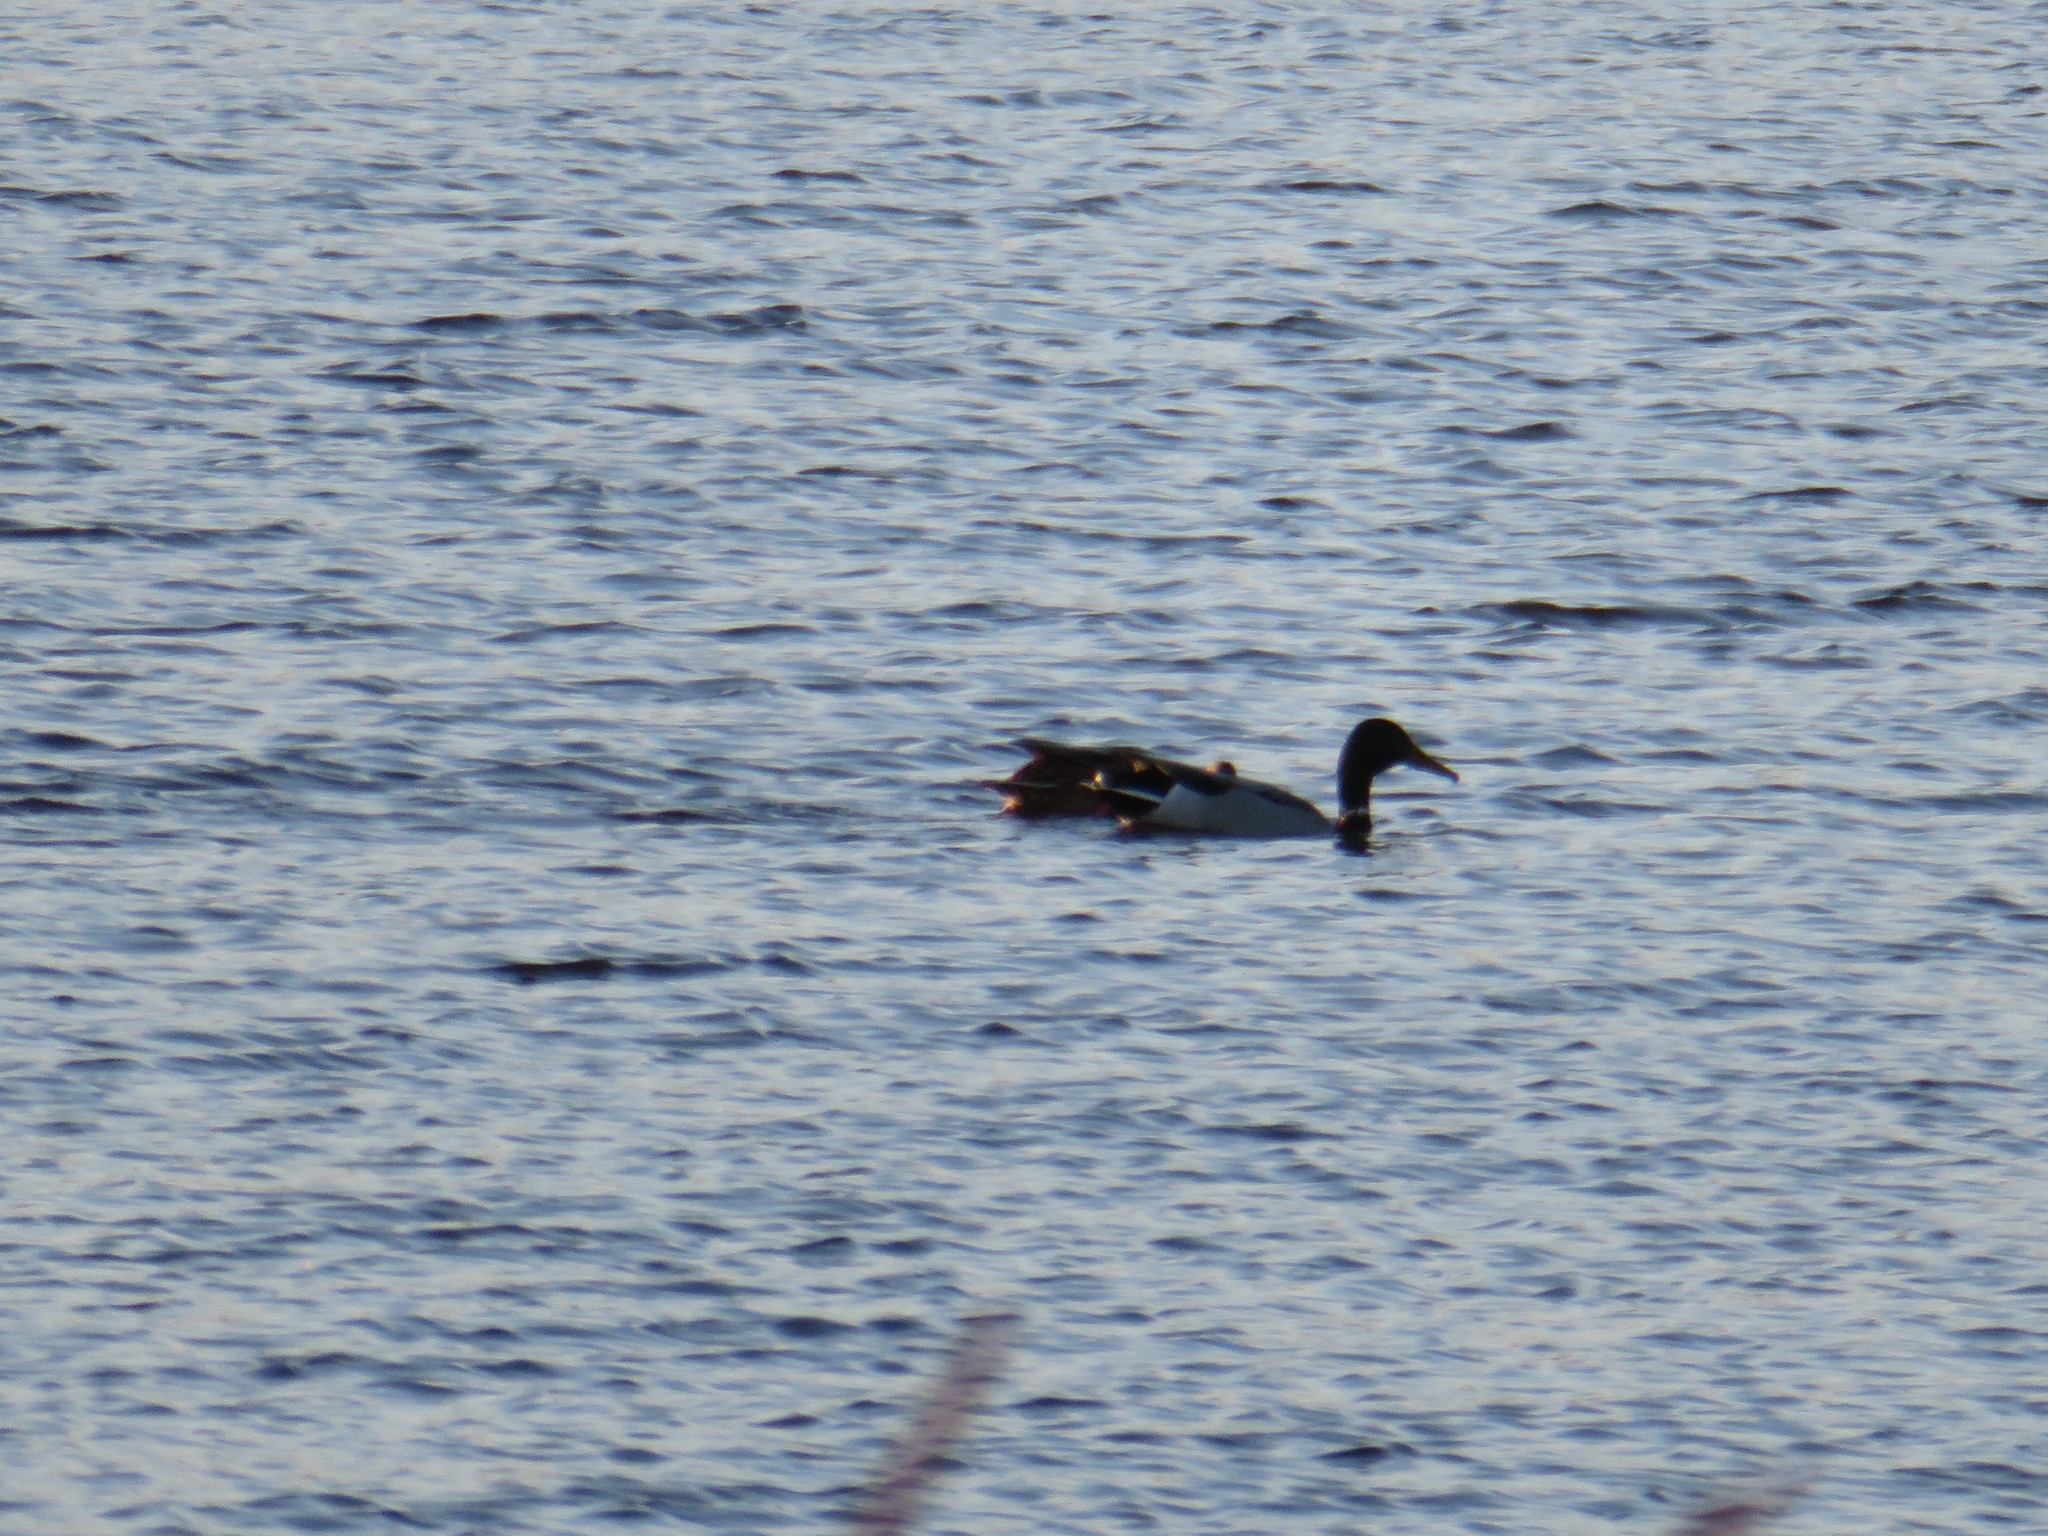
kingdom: Animalia
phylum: Chordata
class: Aves
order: Anseriformes
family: Anatidae
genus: Anas
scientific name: Anas platyrhynchos
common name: Mallard
